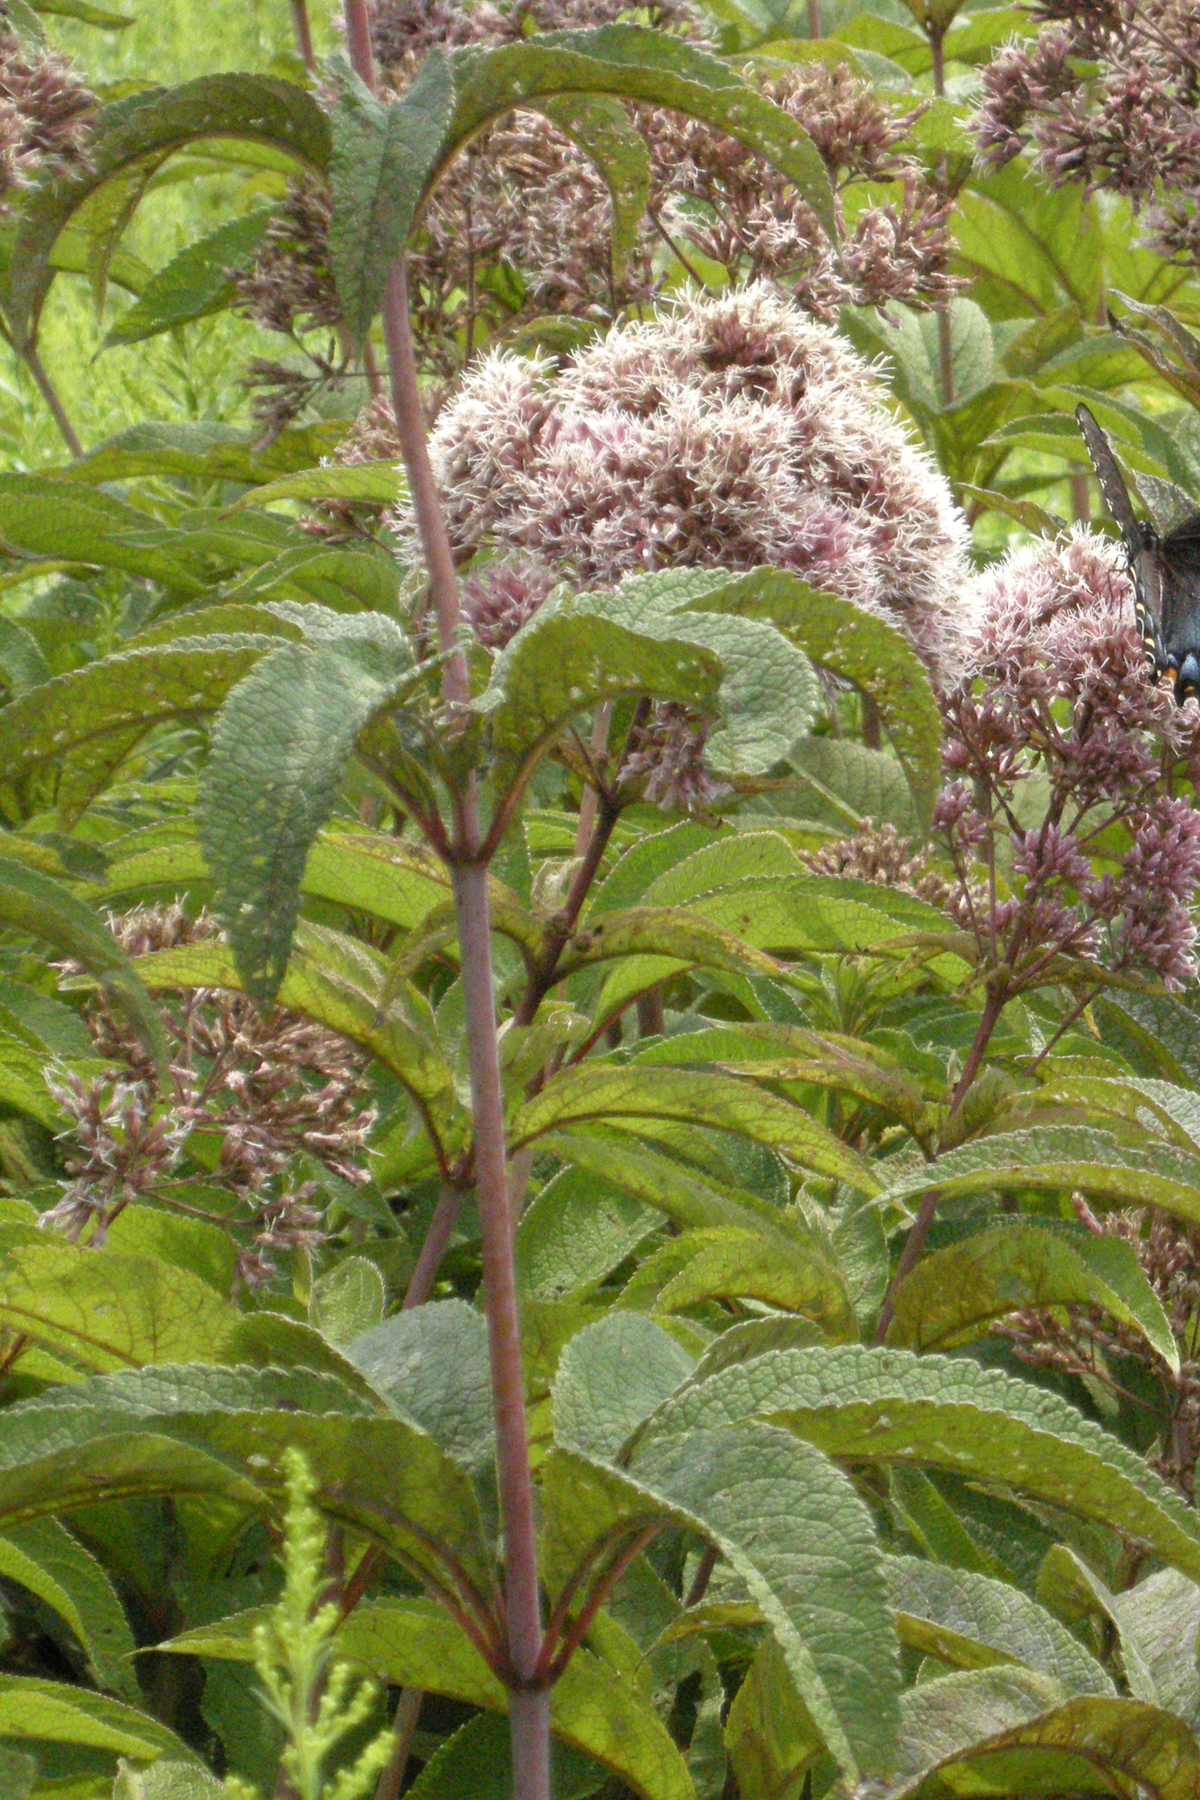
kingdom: Plantae
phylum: Tracheophyta
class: Magnoliopsida
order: Asterales
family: Asteraceae
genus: Eutrochium
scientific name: Eutrochium fistulosum
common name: Trumpetweed
